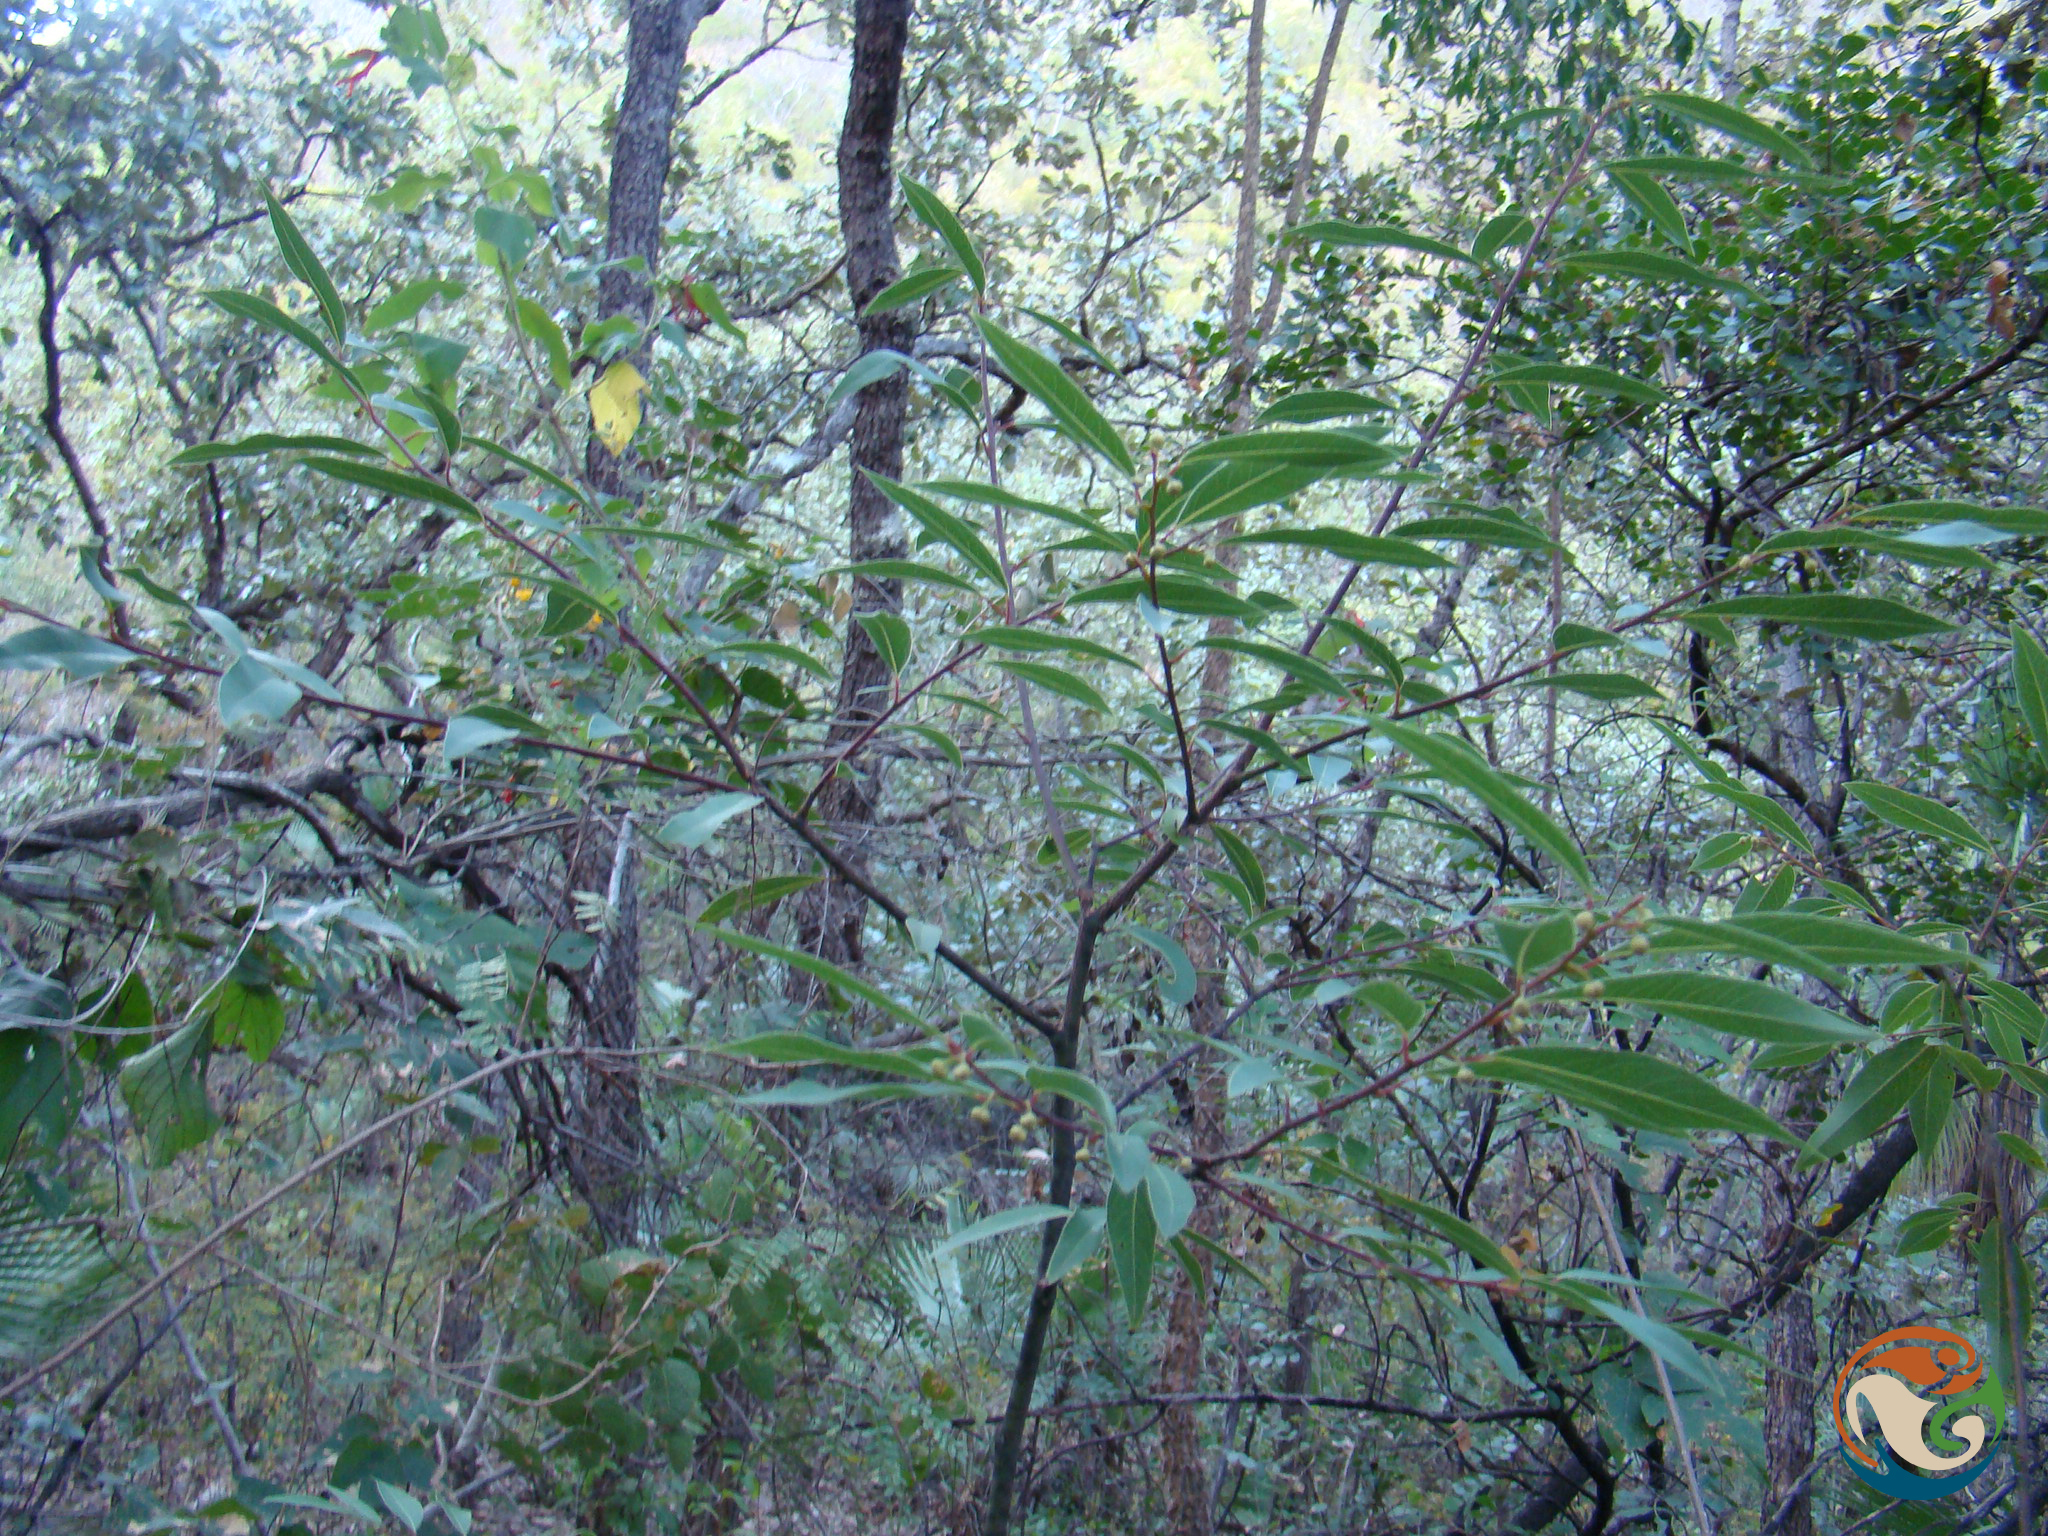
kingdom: Plantae
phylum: Tracheophyta
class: Magnoliopsida
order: Laurales
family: Lauraceae
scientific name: Lauraceae
